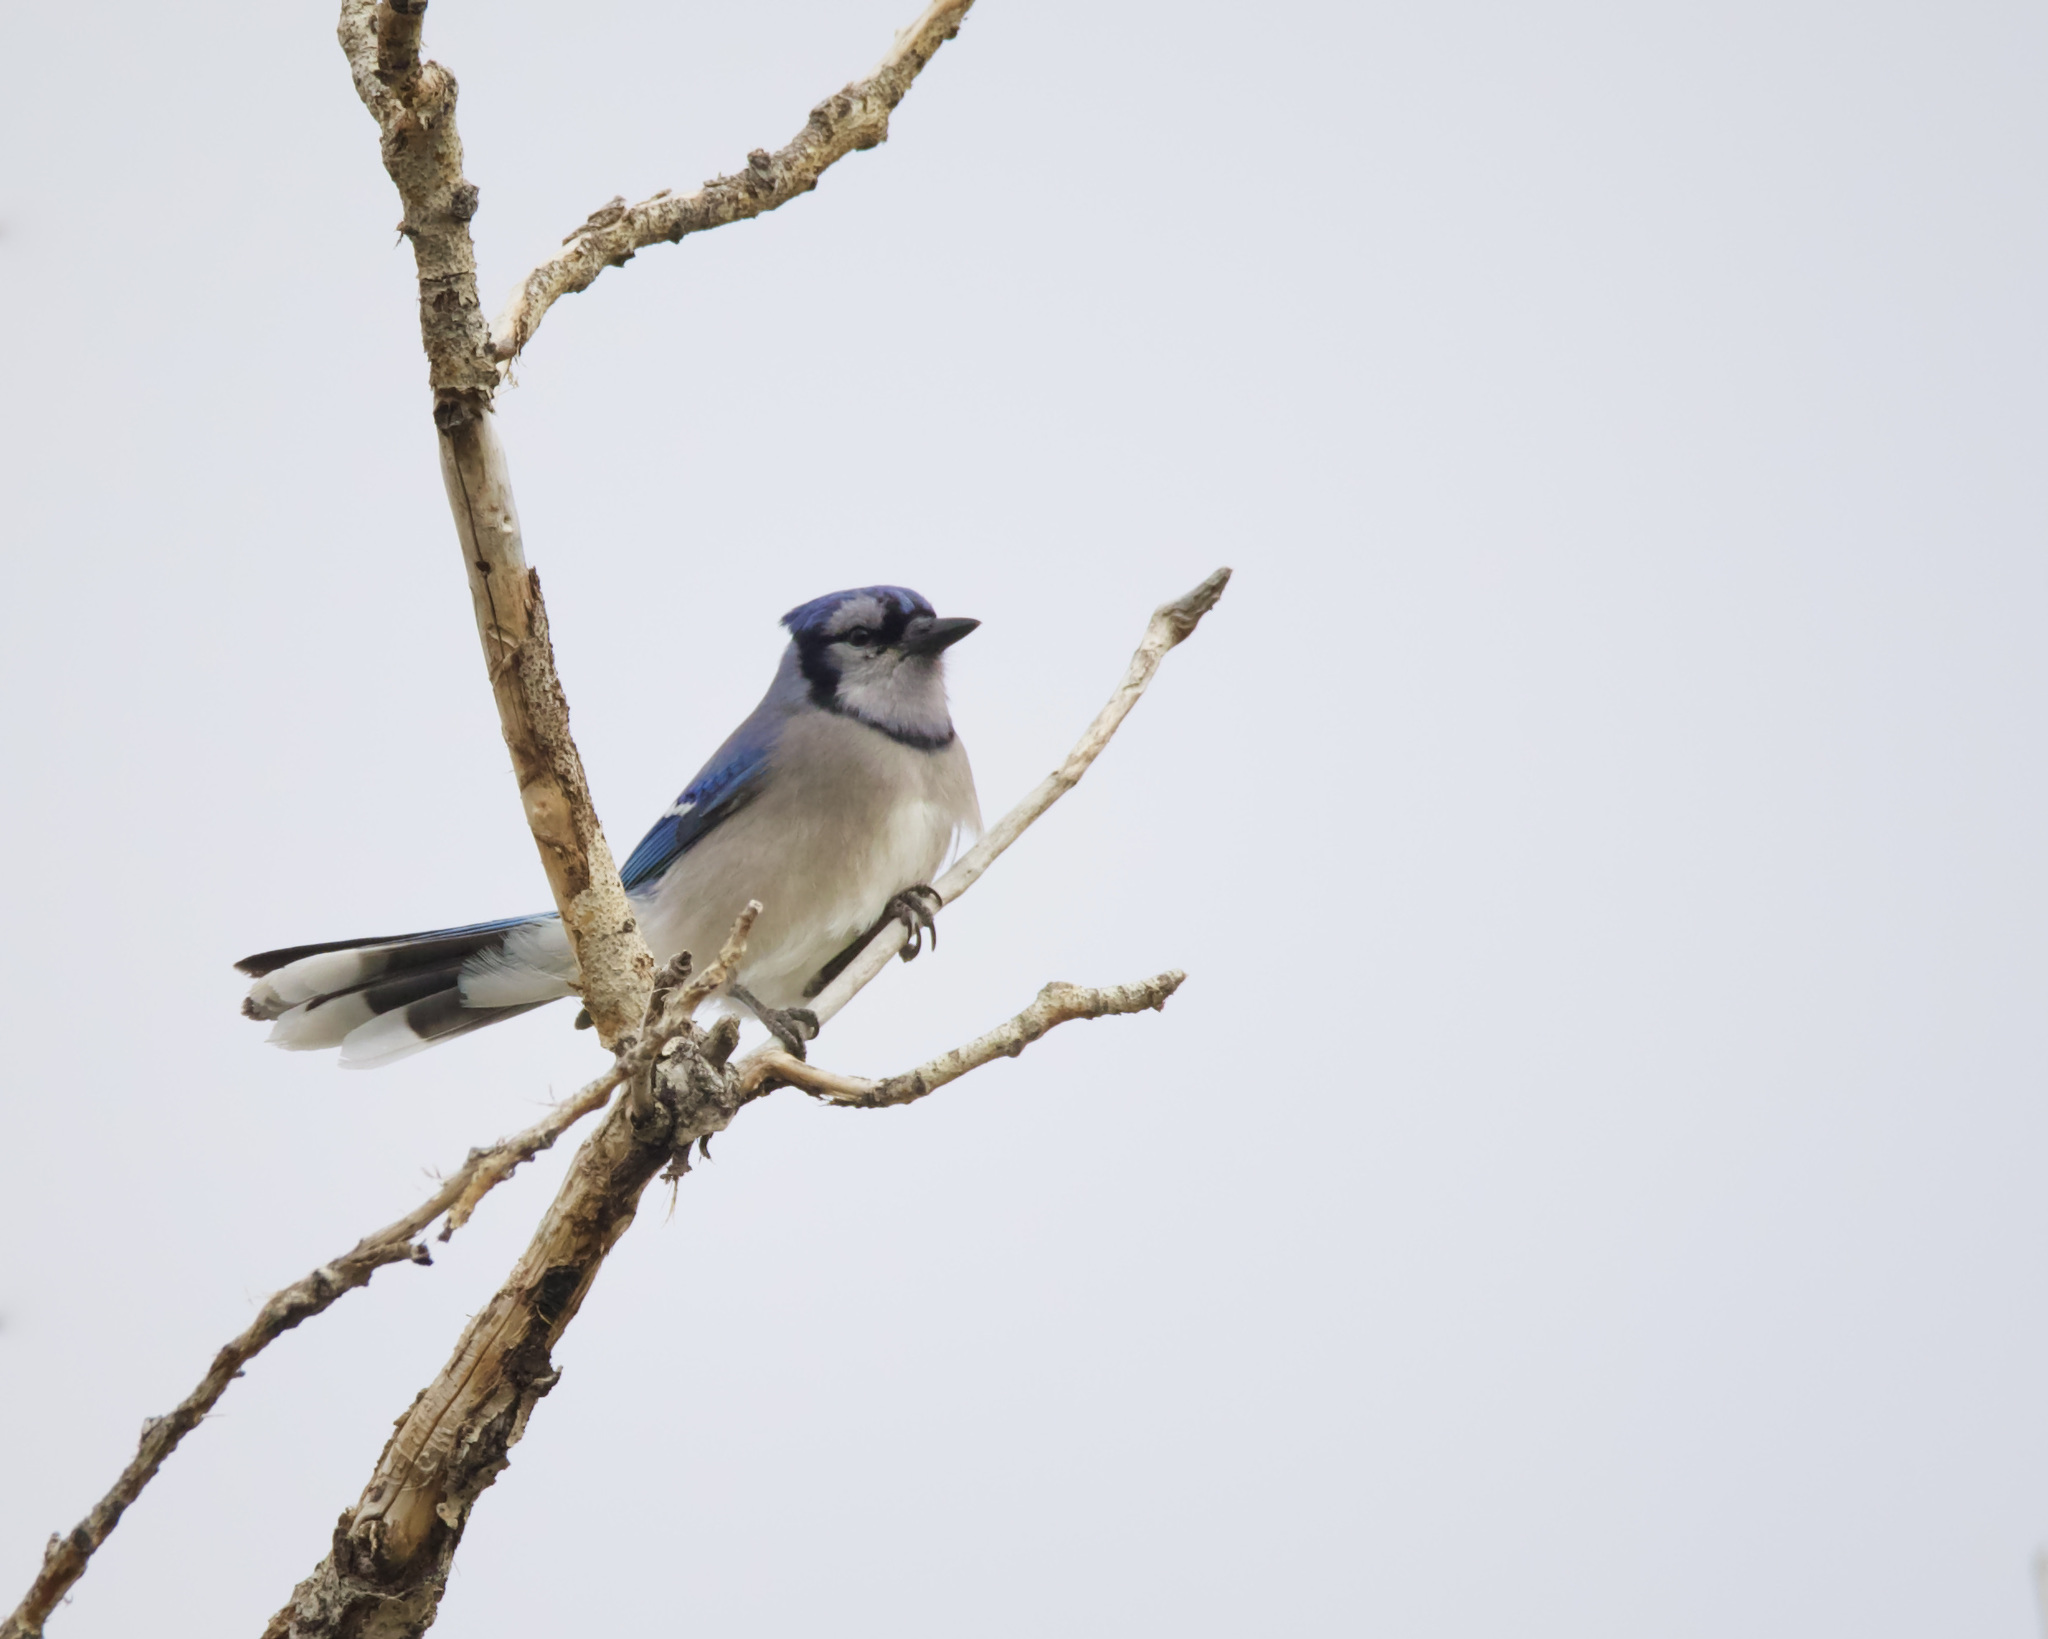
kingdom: Animalia
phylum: Chordata
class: Aves
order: Passeriformes
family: Corvidae
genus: Cyanocitta
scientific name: Cyanocitta cristata
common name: Blue jay
